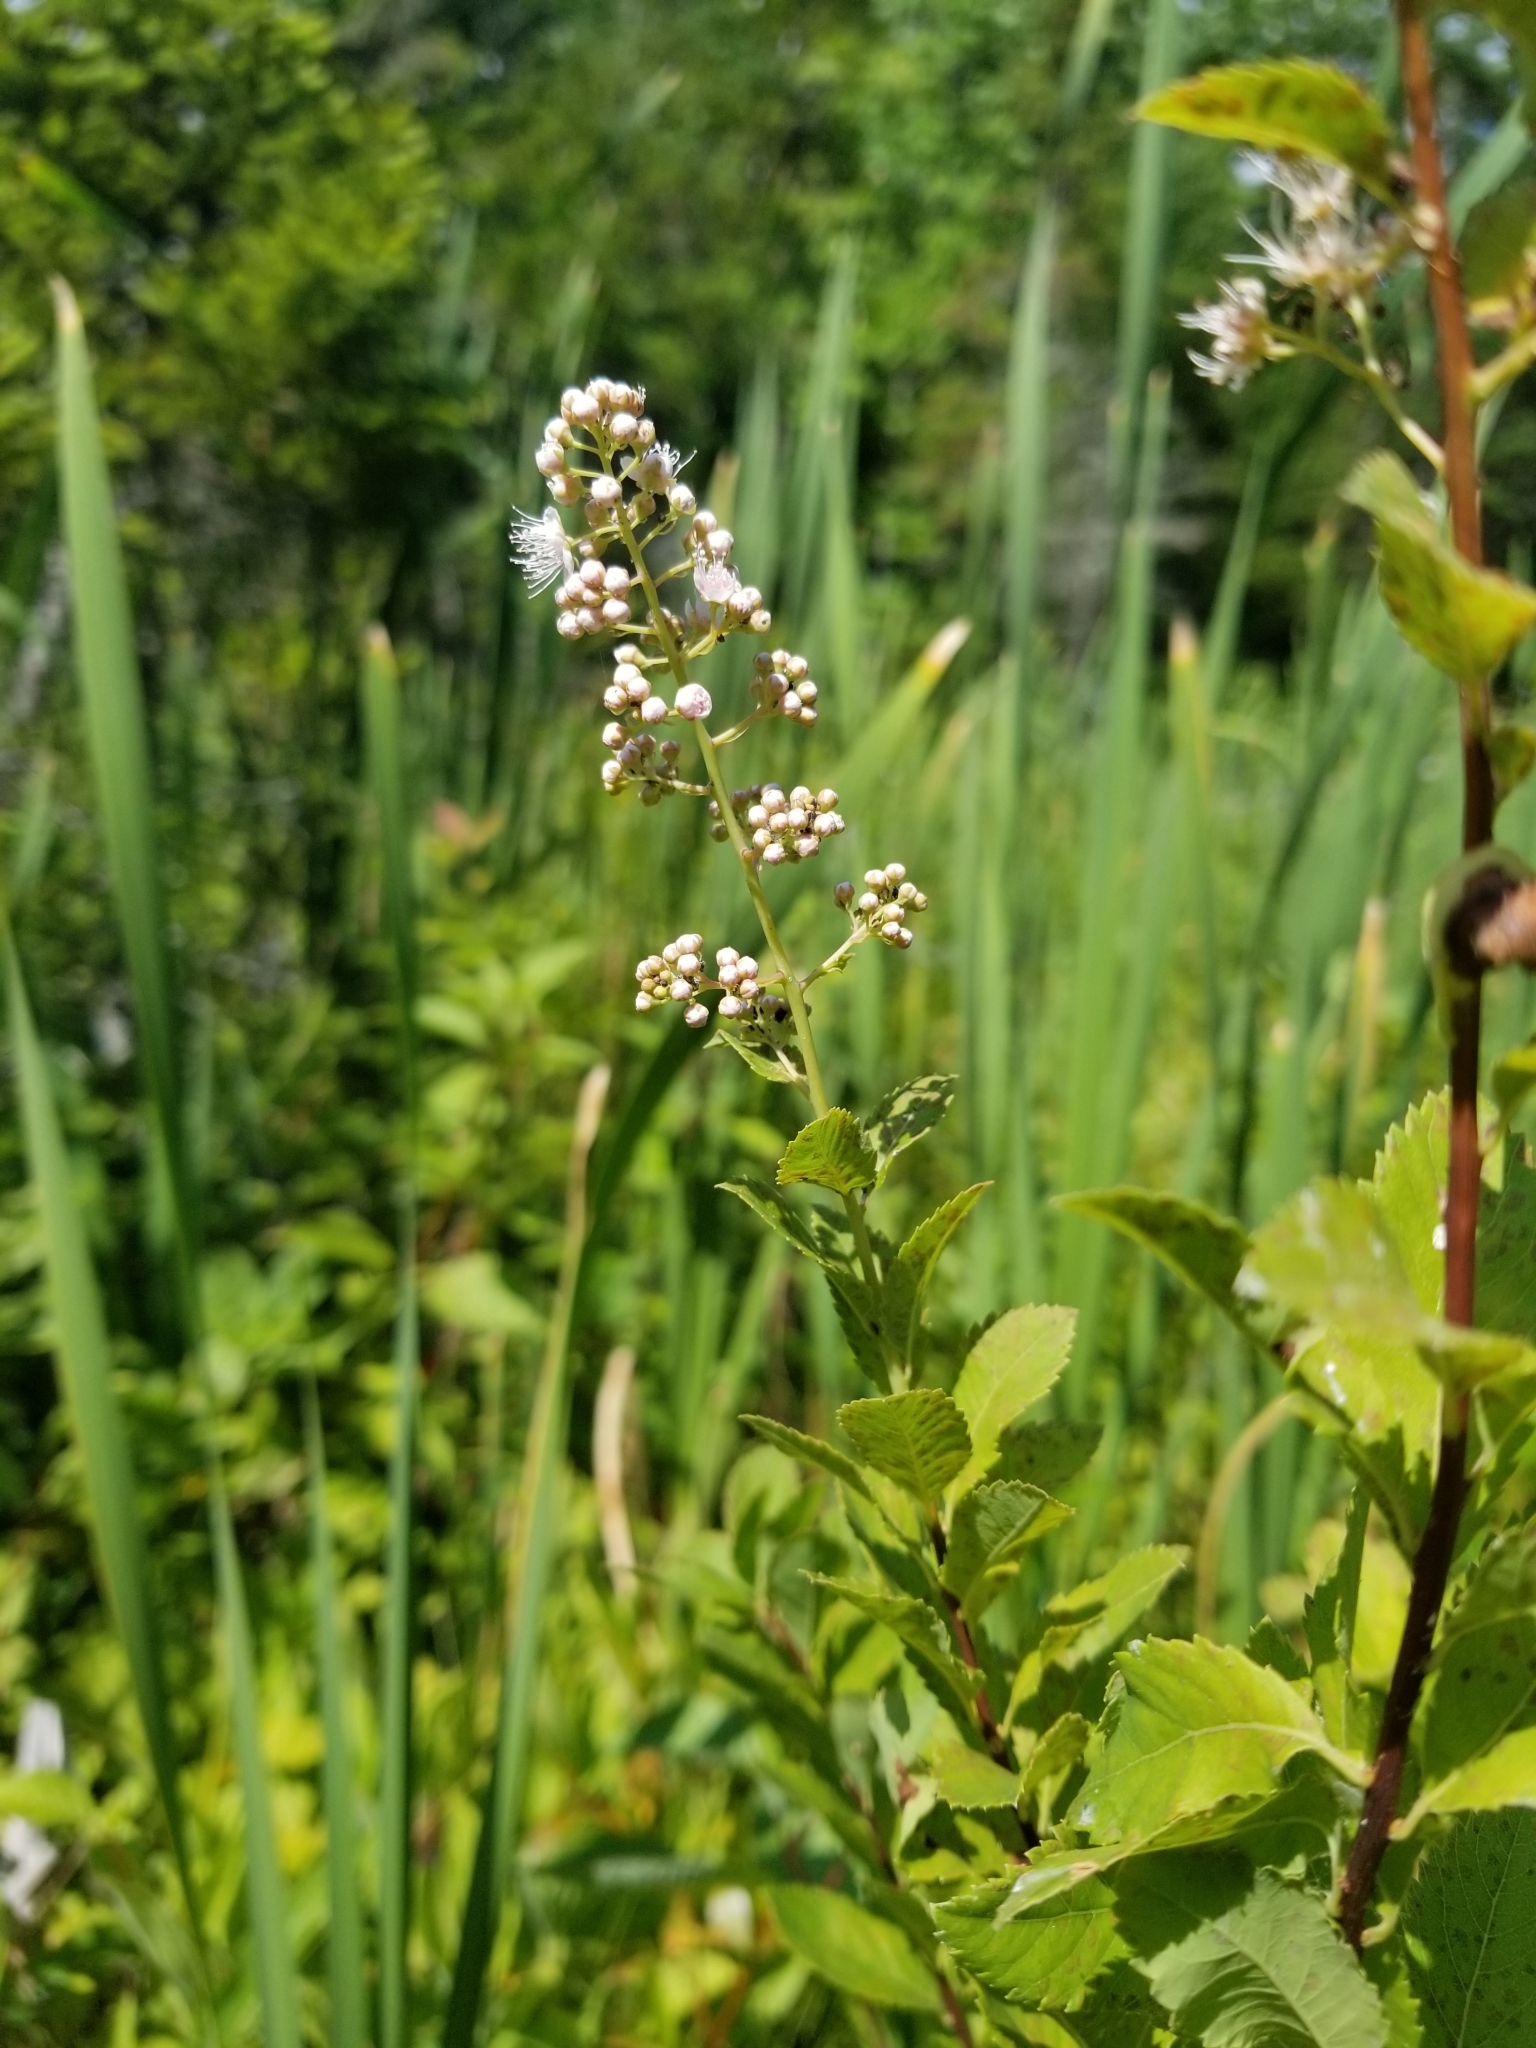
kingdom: Plantae
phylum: Tracheophyta
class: Magnoliopsida
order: Rosales
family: Rosaceae
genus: Spiraea
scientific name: Spiraea alba
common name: Pale bridewort
